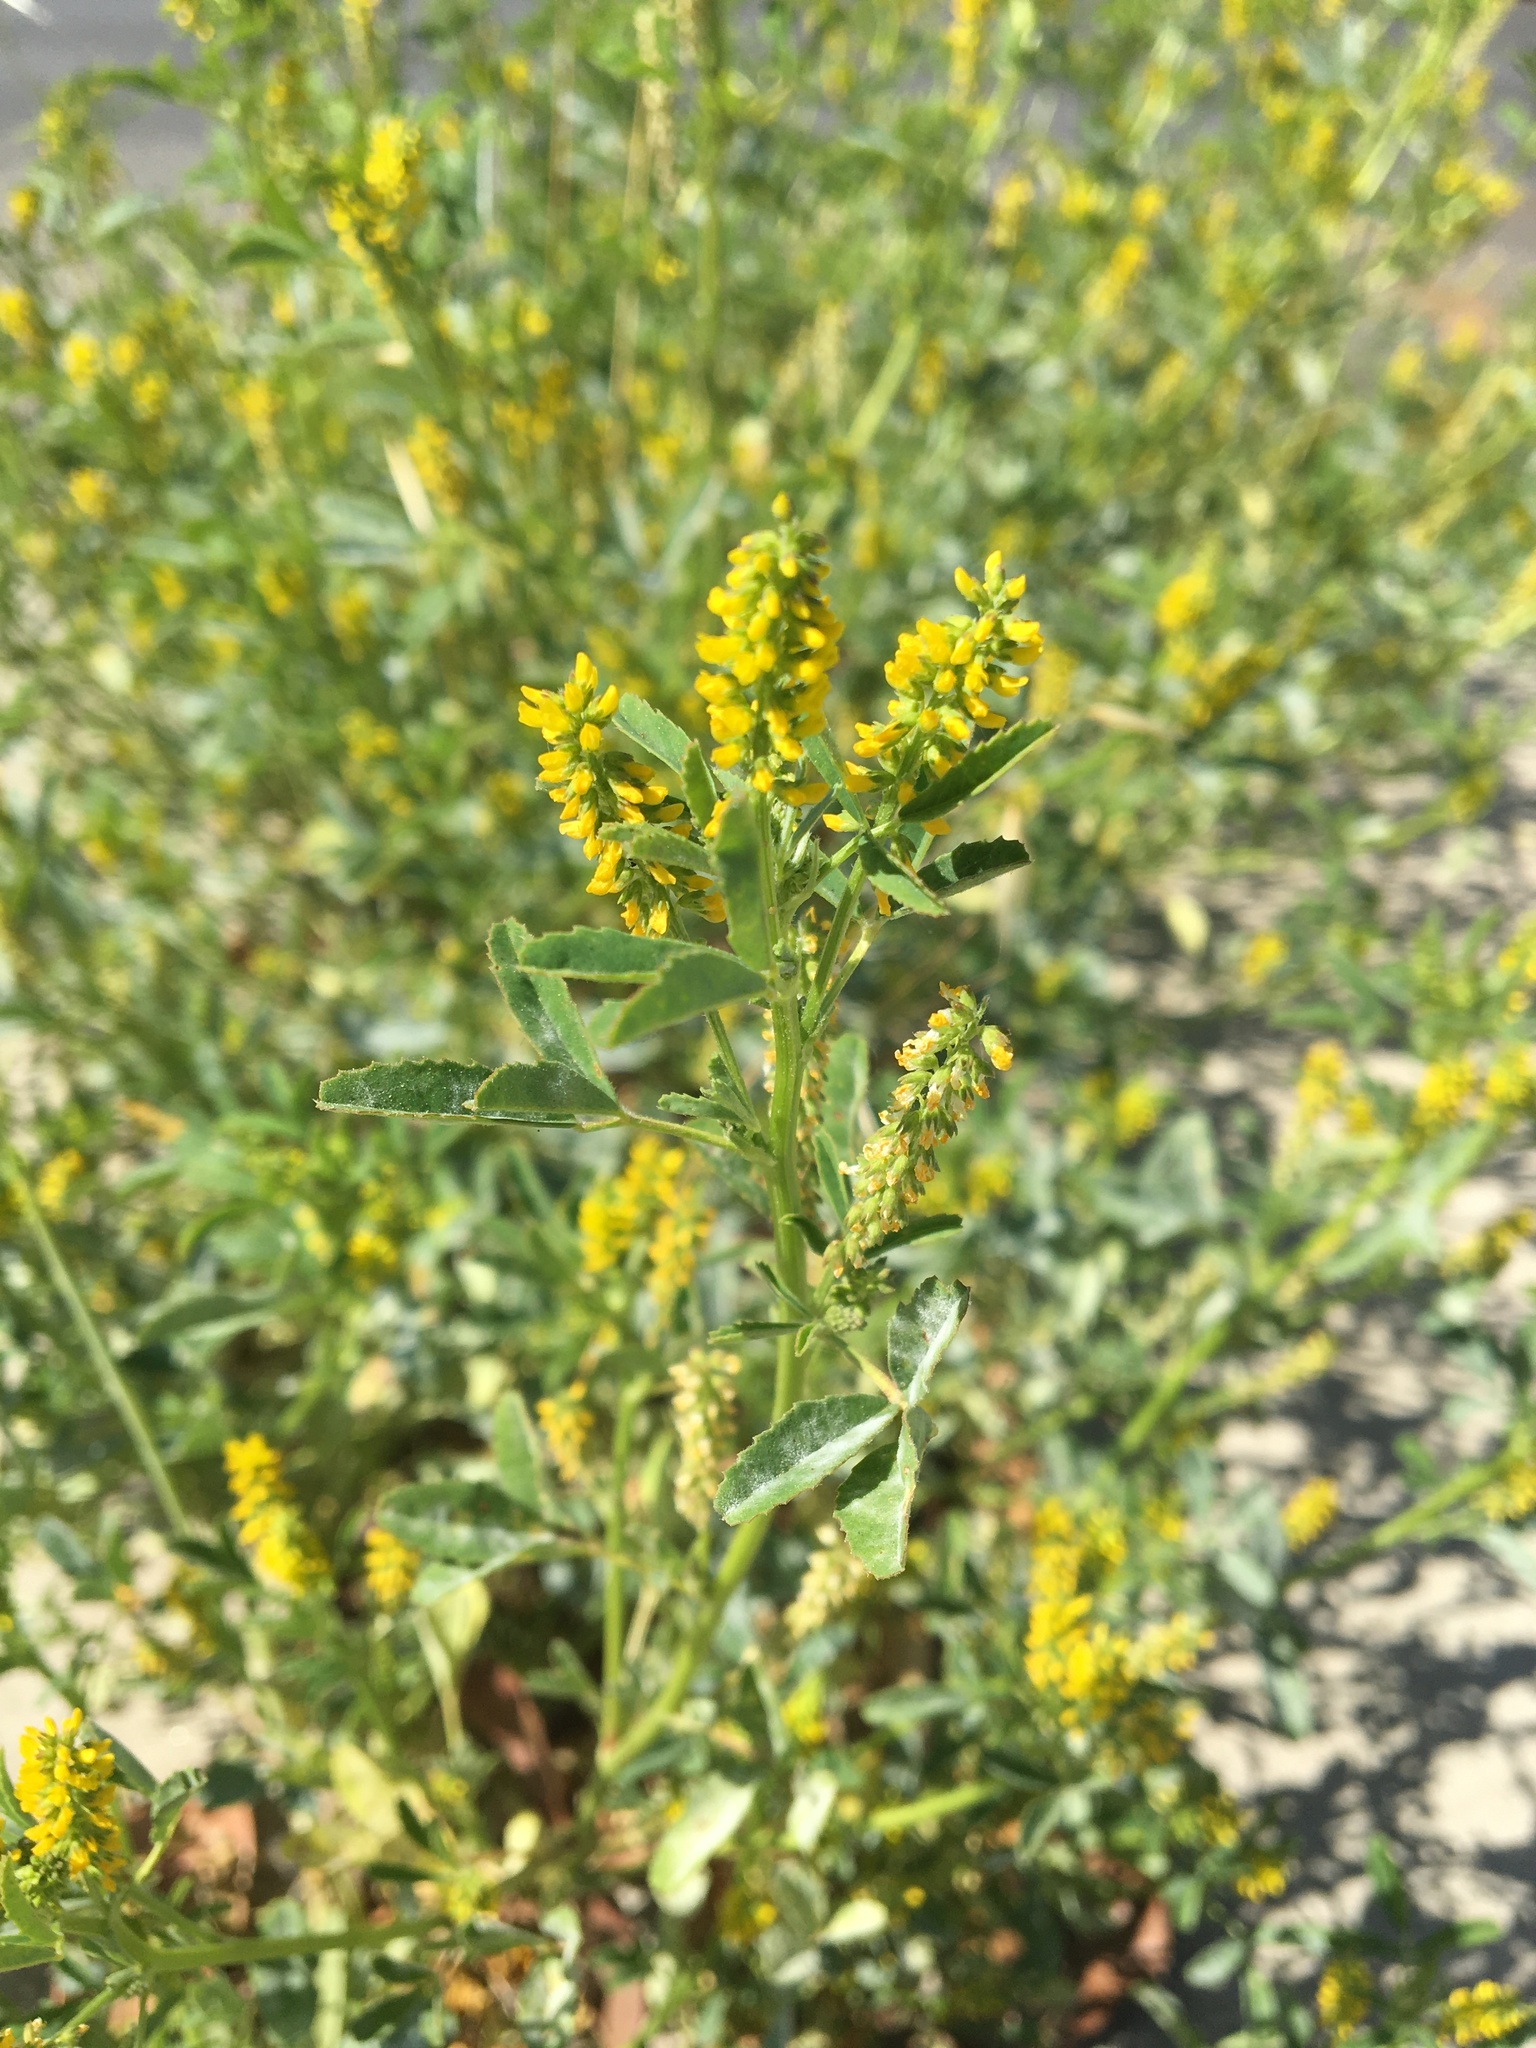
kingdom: Plantae
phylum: Tracheophyta
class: Magnoliopsida
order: Fabales
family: Fabaceae
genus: Melilotus
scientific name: Melilotus indicus
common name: Small melilot
